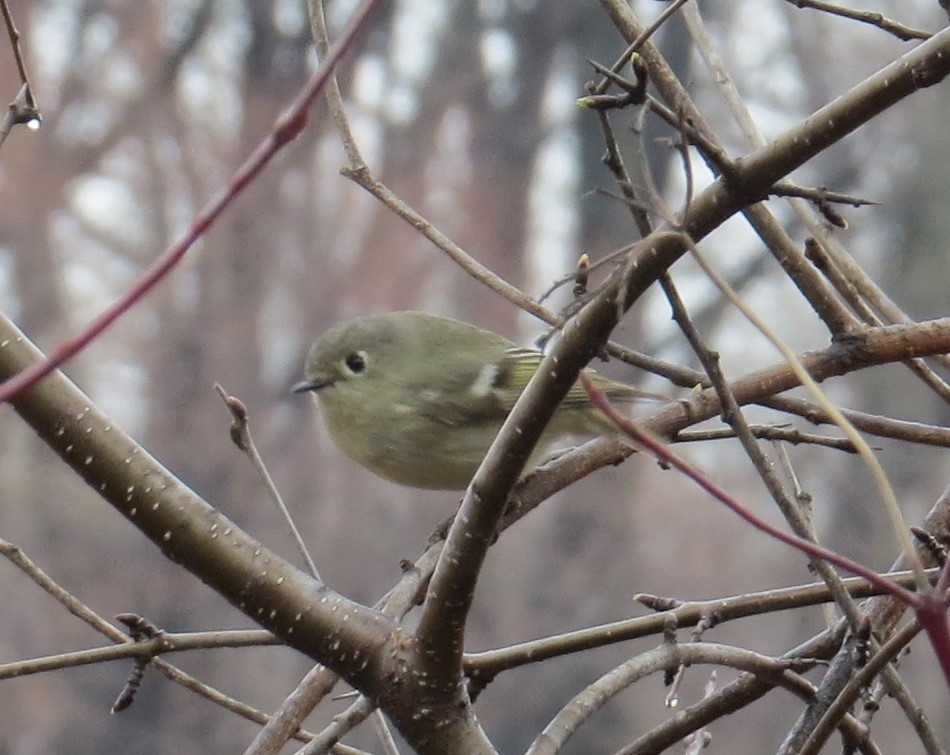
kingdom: Animalia
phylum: Chordata
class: Aves
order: Passeriformes
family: Regulidae
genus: Regulus
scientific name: Regulus calendula
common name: Ruby-crowned kinglet
